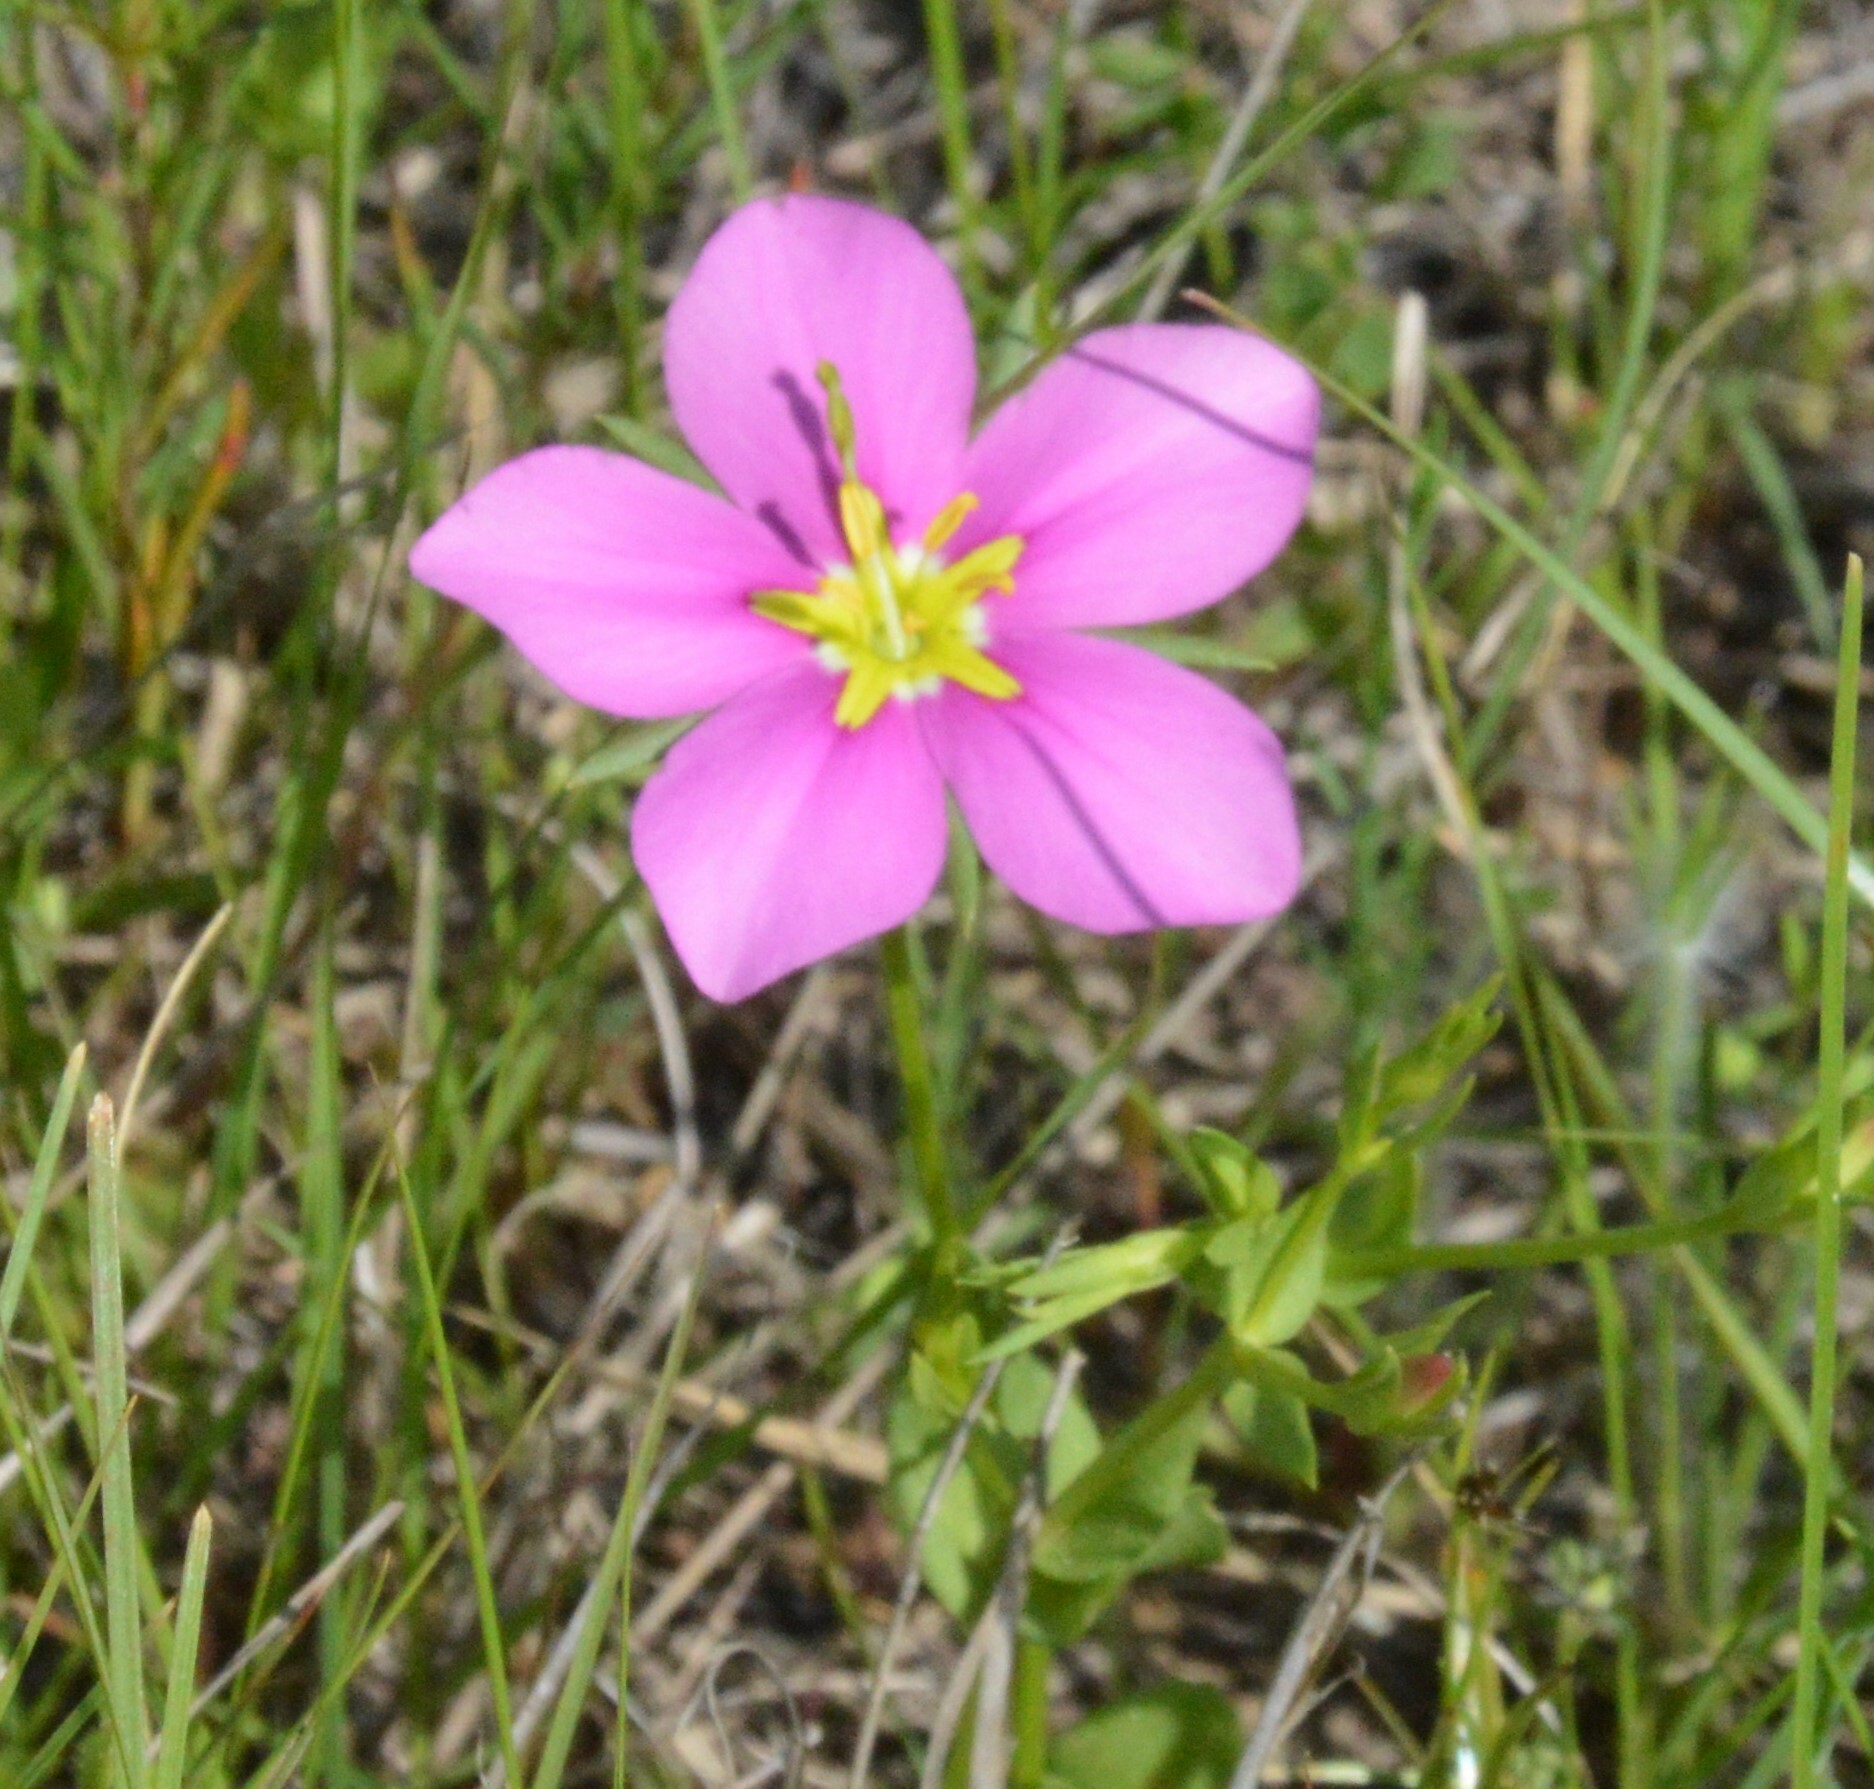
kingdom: Plantae
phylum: Tracheophyta
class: Magnoliopsida
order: Gentianales
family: Gentianaceae
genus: Sabatia
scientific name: Sabatia campestris
